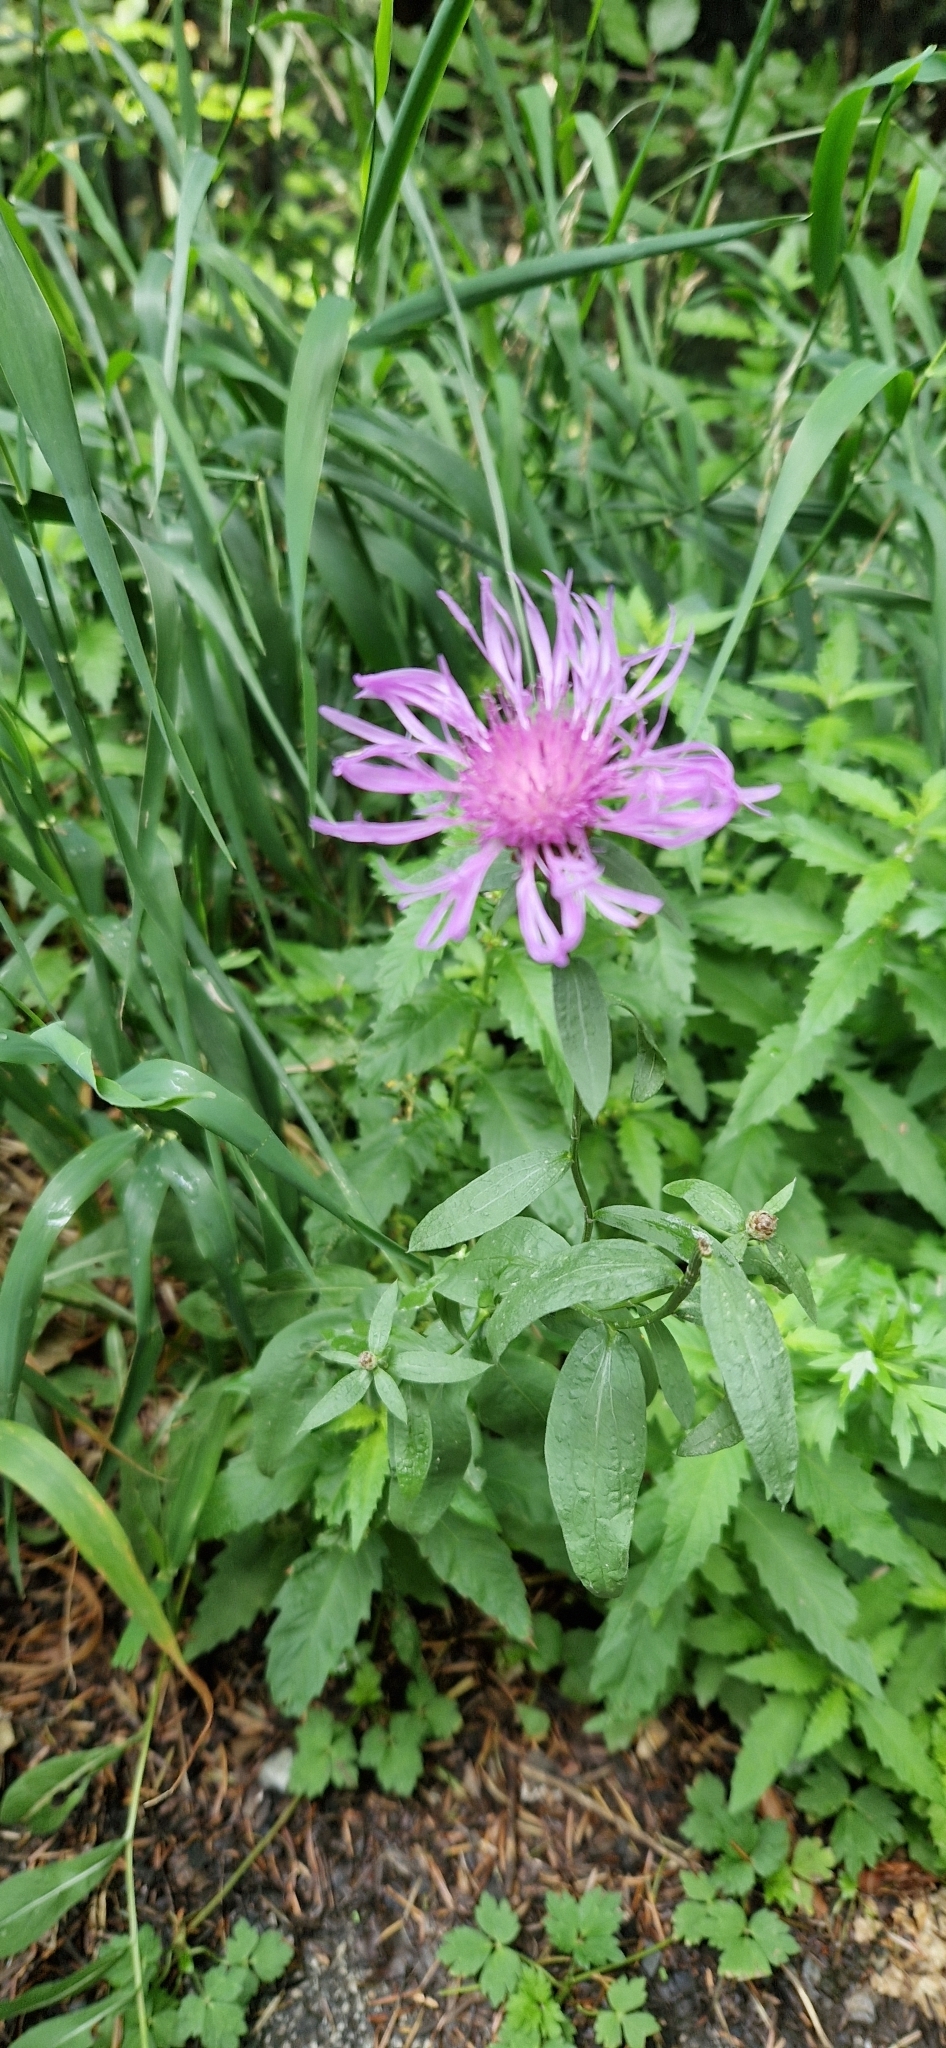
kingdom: Plantae
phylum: Tracheophyta
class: Magnoliopsida
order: Asterales
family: Asteraceae
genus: Centaurea
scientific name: Centaurea jacea
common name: Brown knapweed
